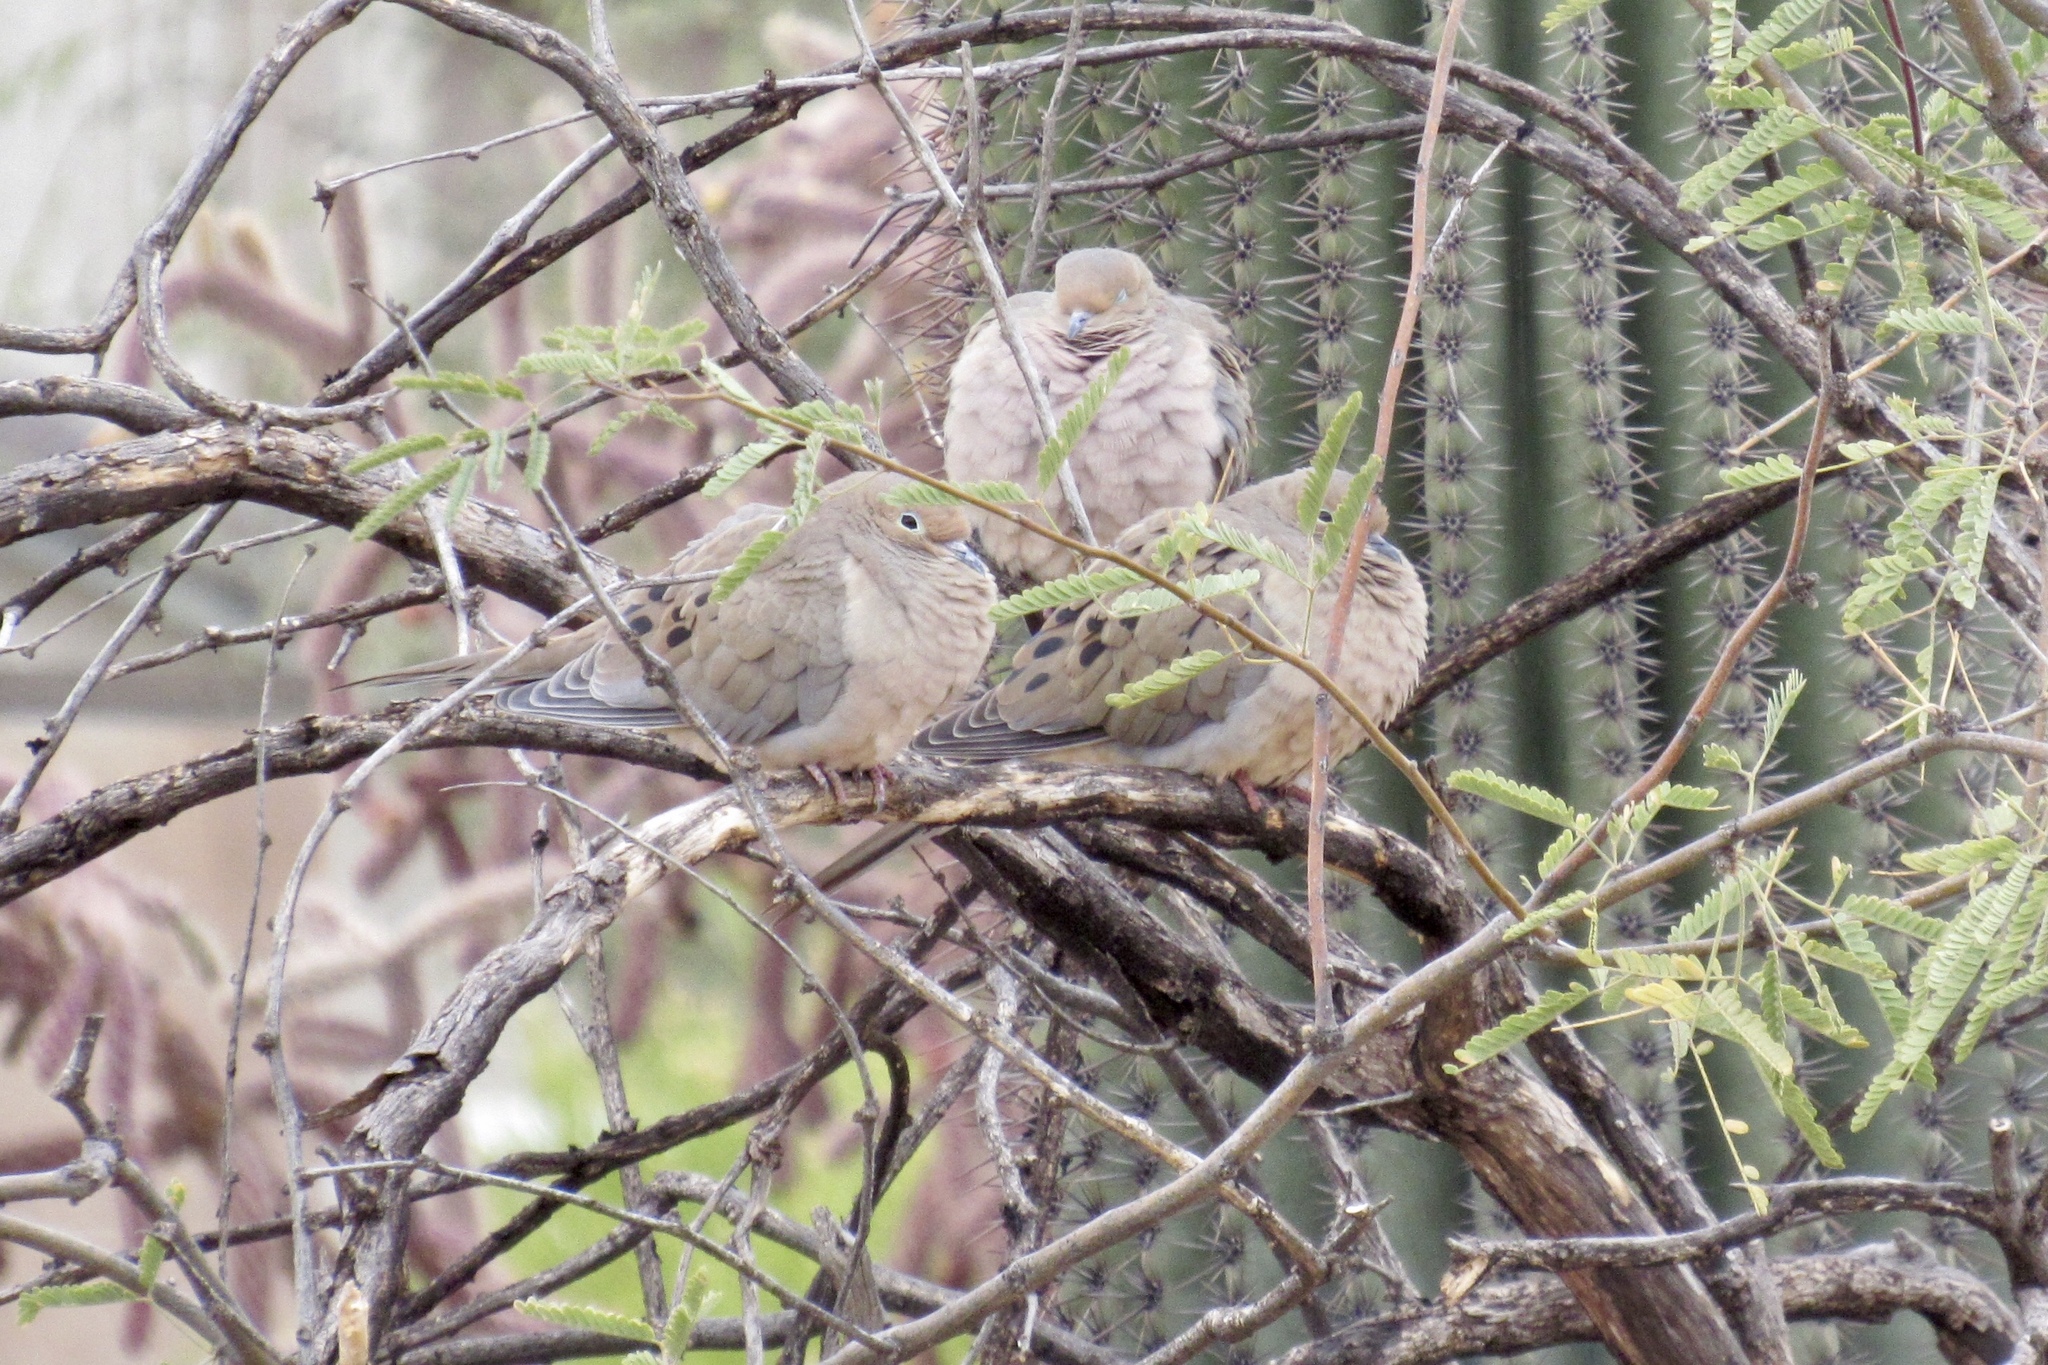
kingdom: Animalia
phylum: Chordata
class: Aves
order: Columbiformes
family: Columbidae
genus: Zenaida
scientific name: Zenaida macroura
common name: Mourning dove
